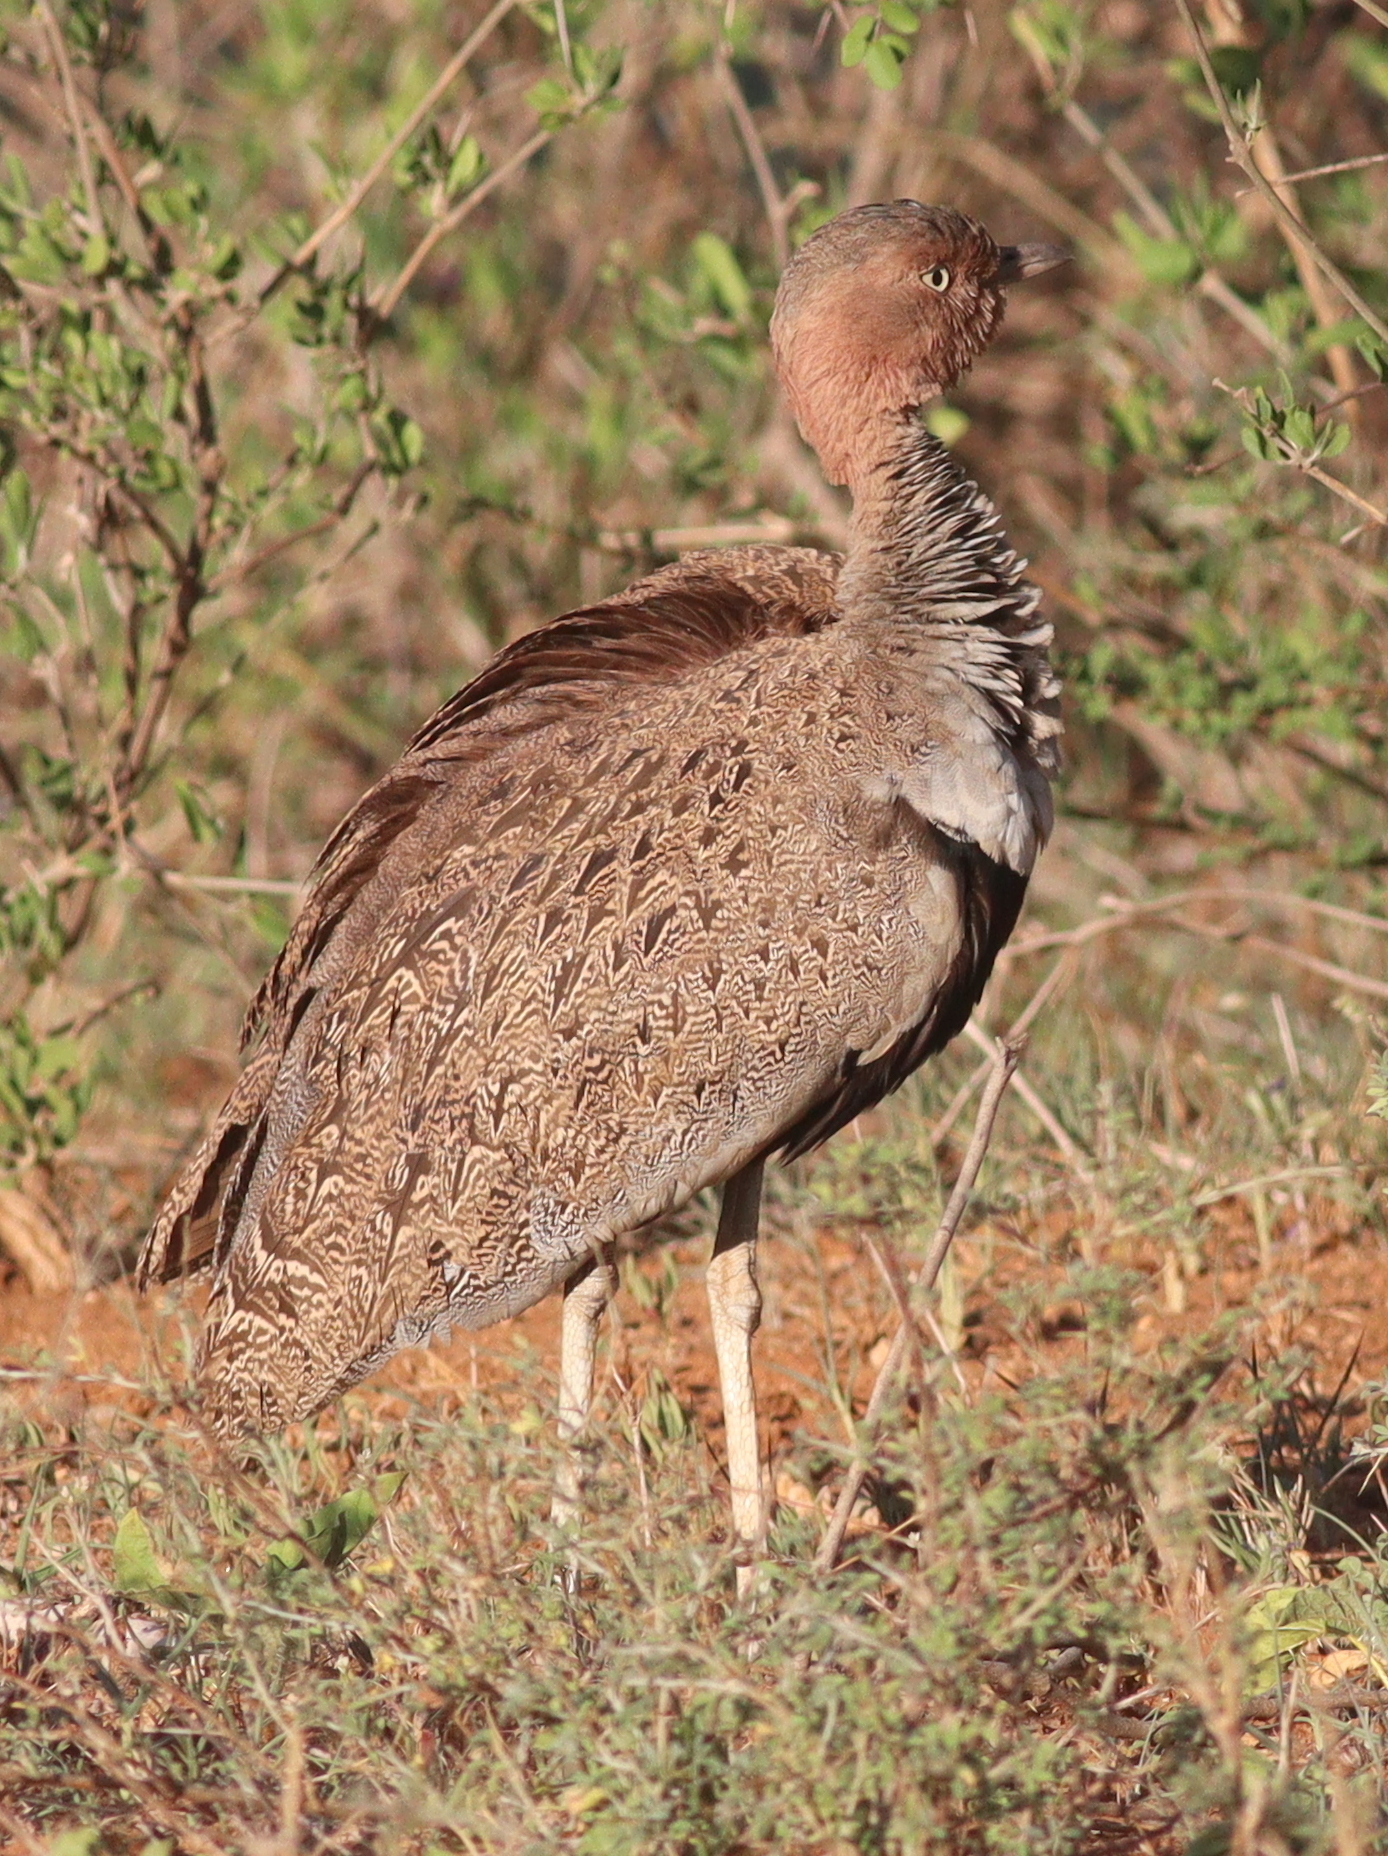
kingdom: Animalia
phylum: Chordata
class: Aves
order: Otidiformes
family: Otididae
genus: Lophotis
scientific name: Lophotis gindiana
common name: Buff-crested bustard
